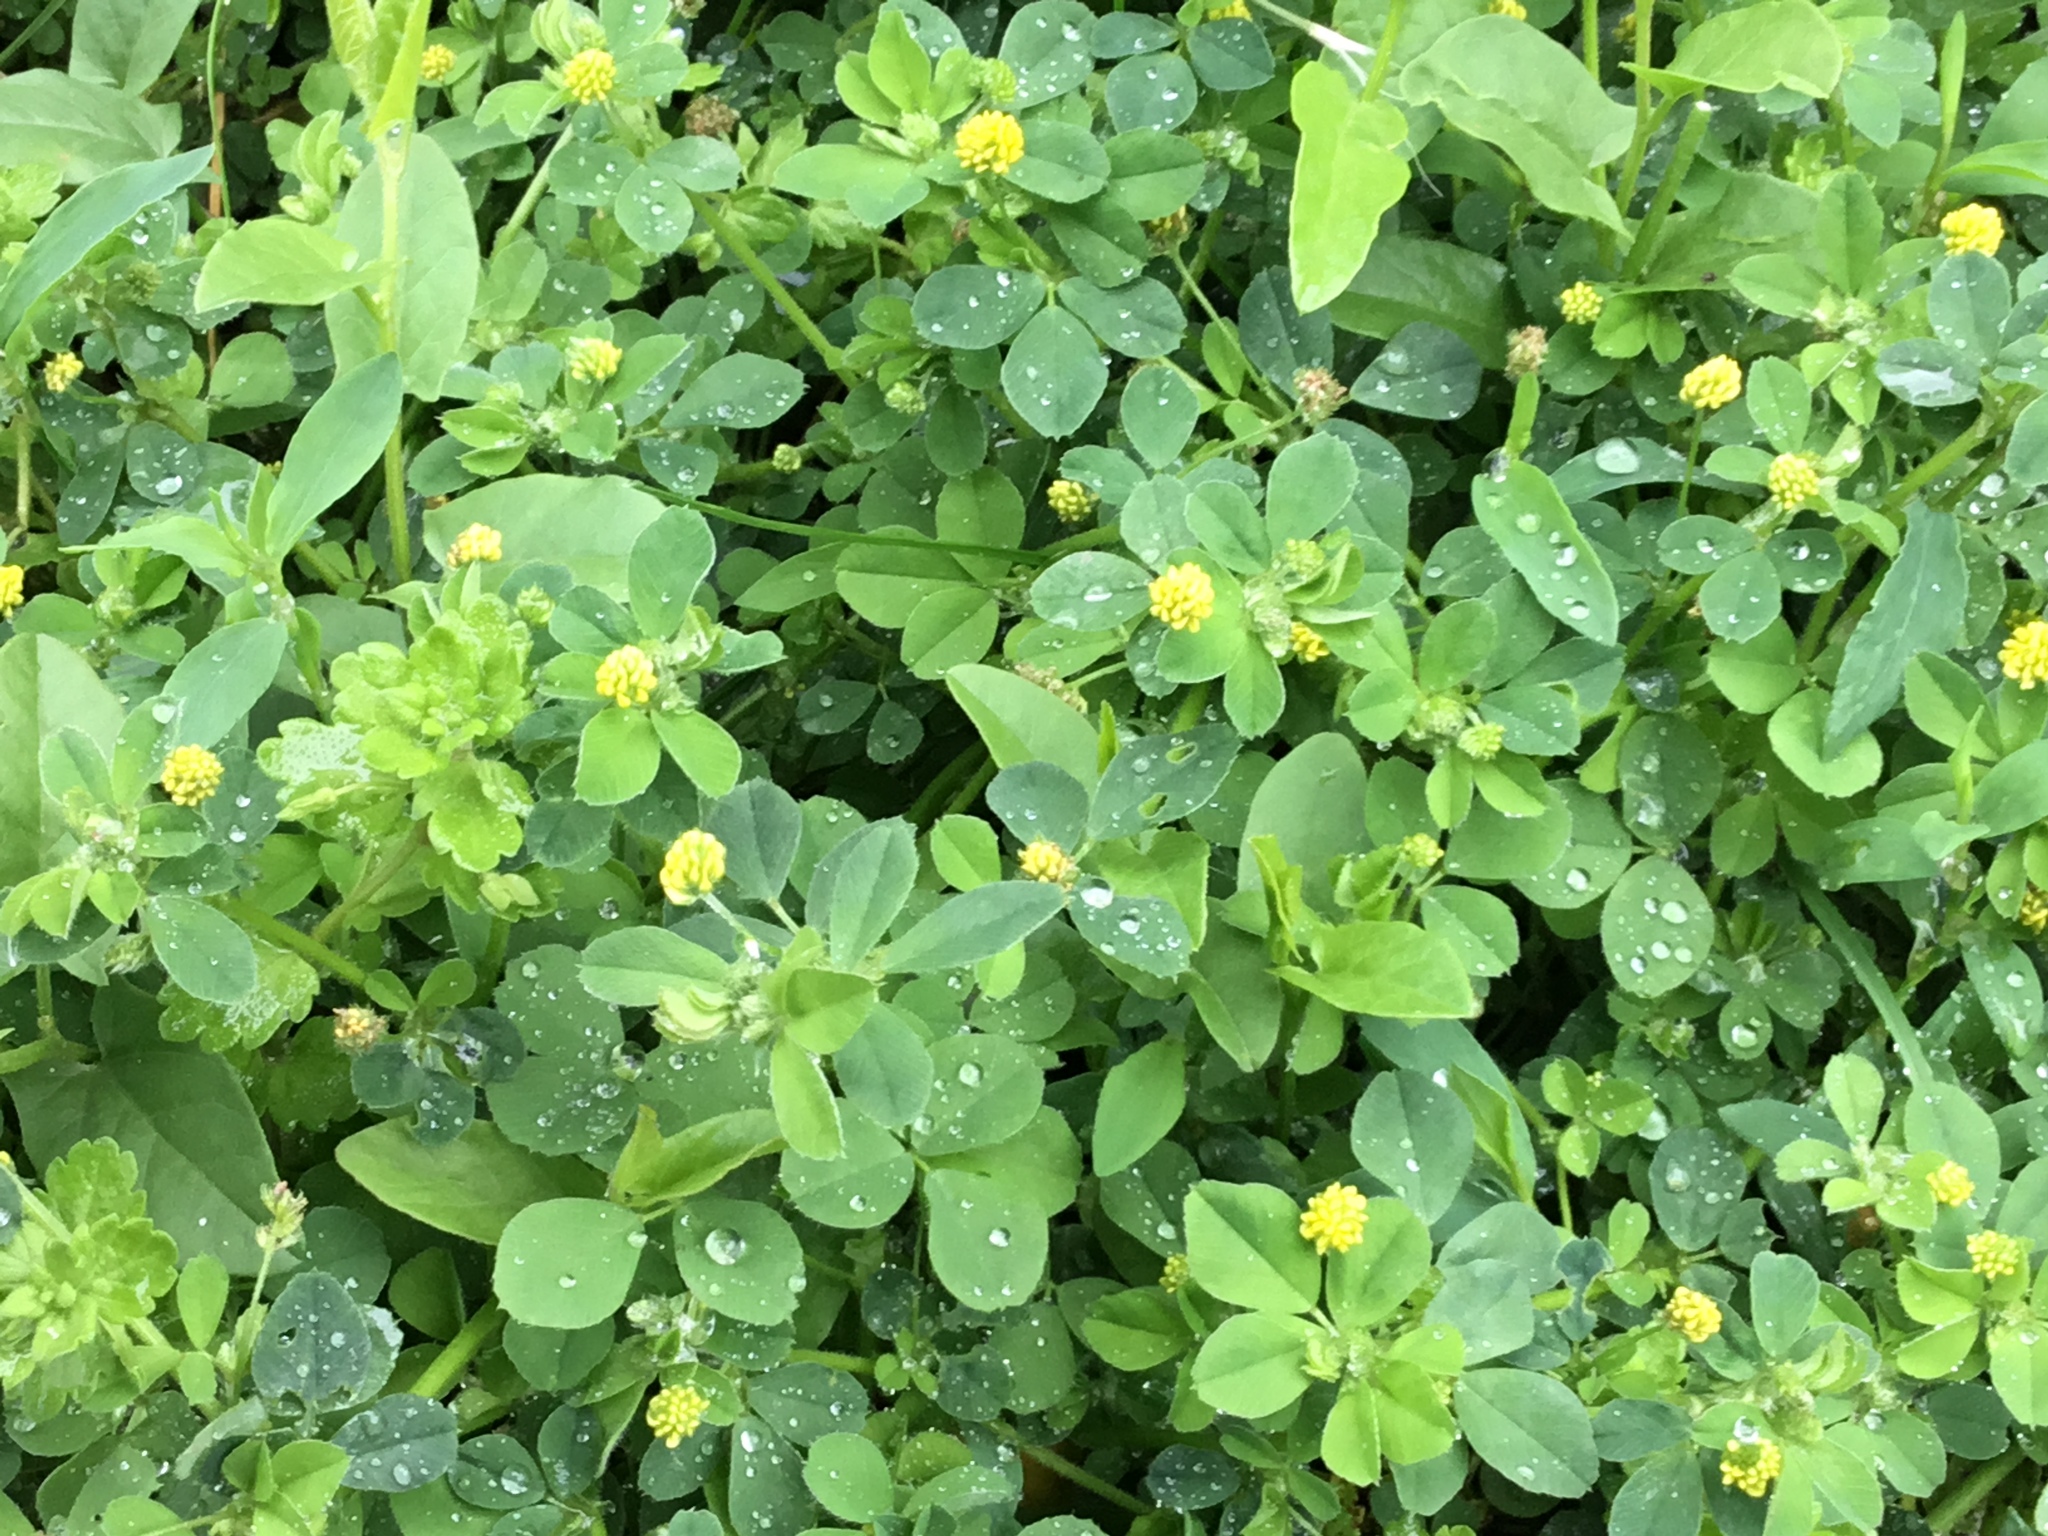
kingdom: Plantae
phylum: Tracheophyta
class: Magnoliopsida
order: Fabales
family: Fabaceae
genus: Medicago
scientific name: Medicago lupulina
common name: Black medick
